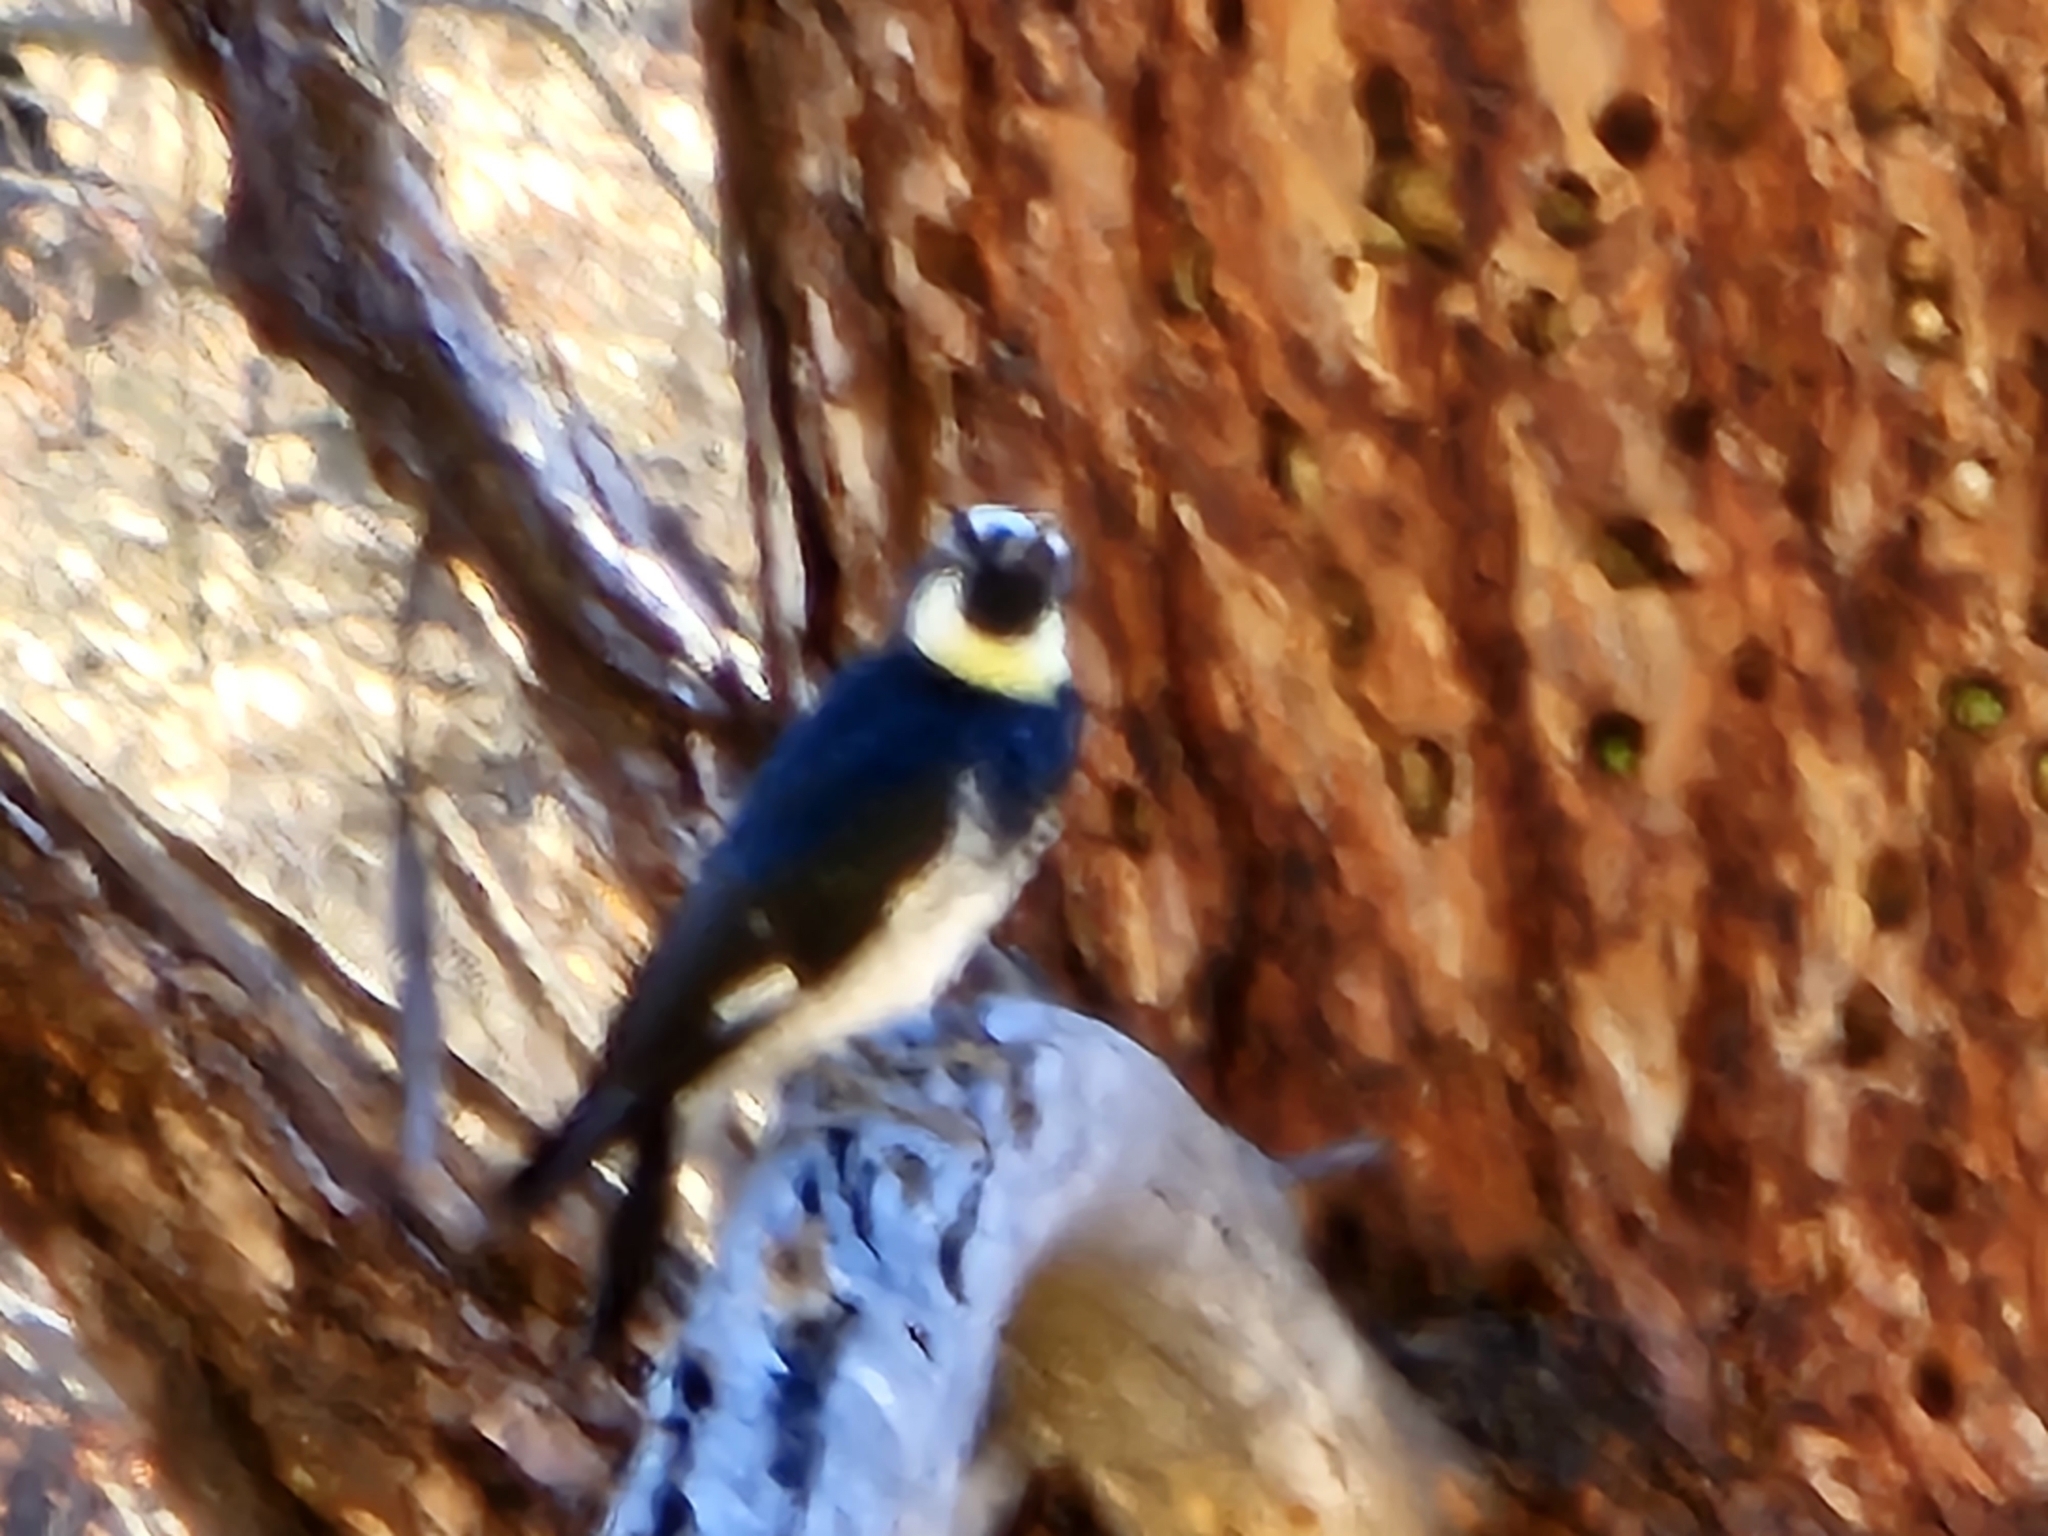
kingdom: Animalia
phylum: Chordata
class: Aves
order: Piciformes
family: Picidae
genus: Melanerpes
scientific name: Melanerpes formicivorus
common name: Acorn woodpecker
